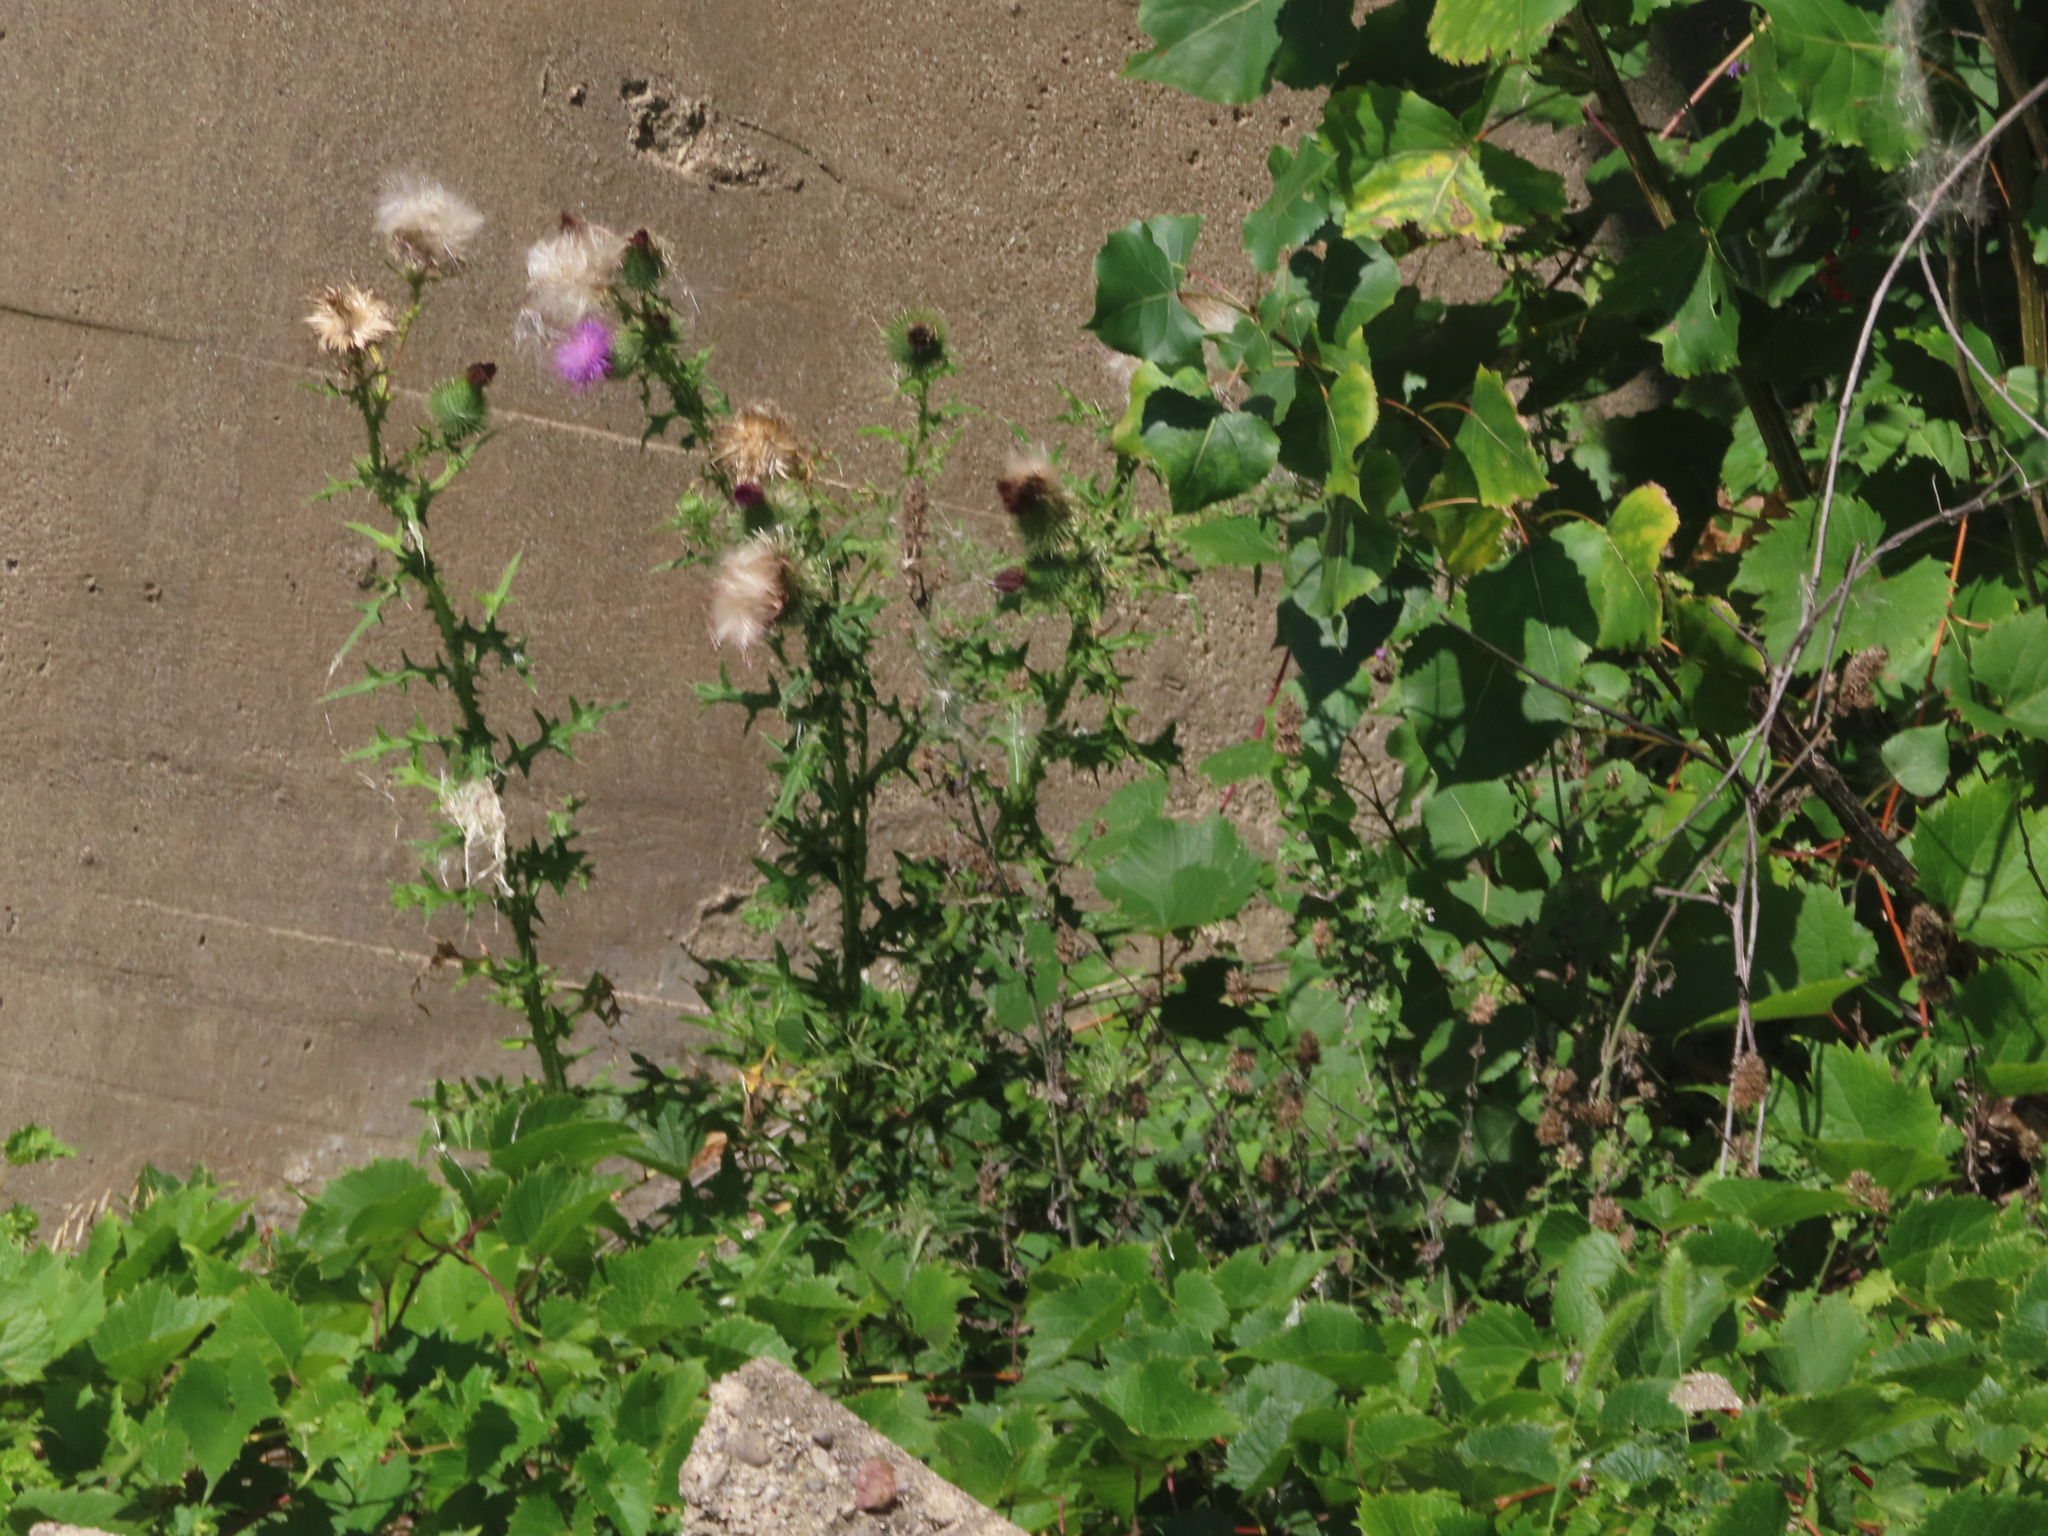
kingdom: Plantae
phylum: Tracheophyta
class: Magnoliopsida
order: Asterales
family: Asteraceae
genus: Cirsium
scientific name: Cirsium vulgare
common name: Bull thistle
